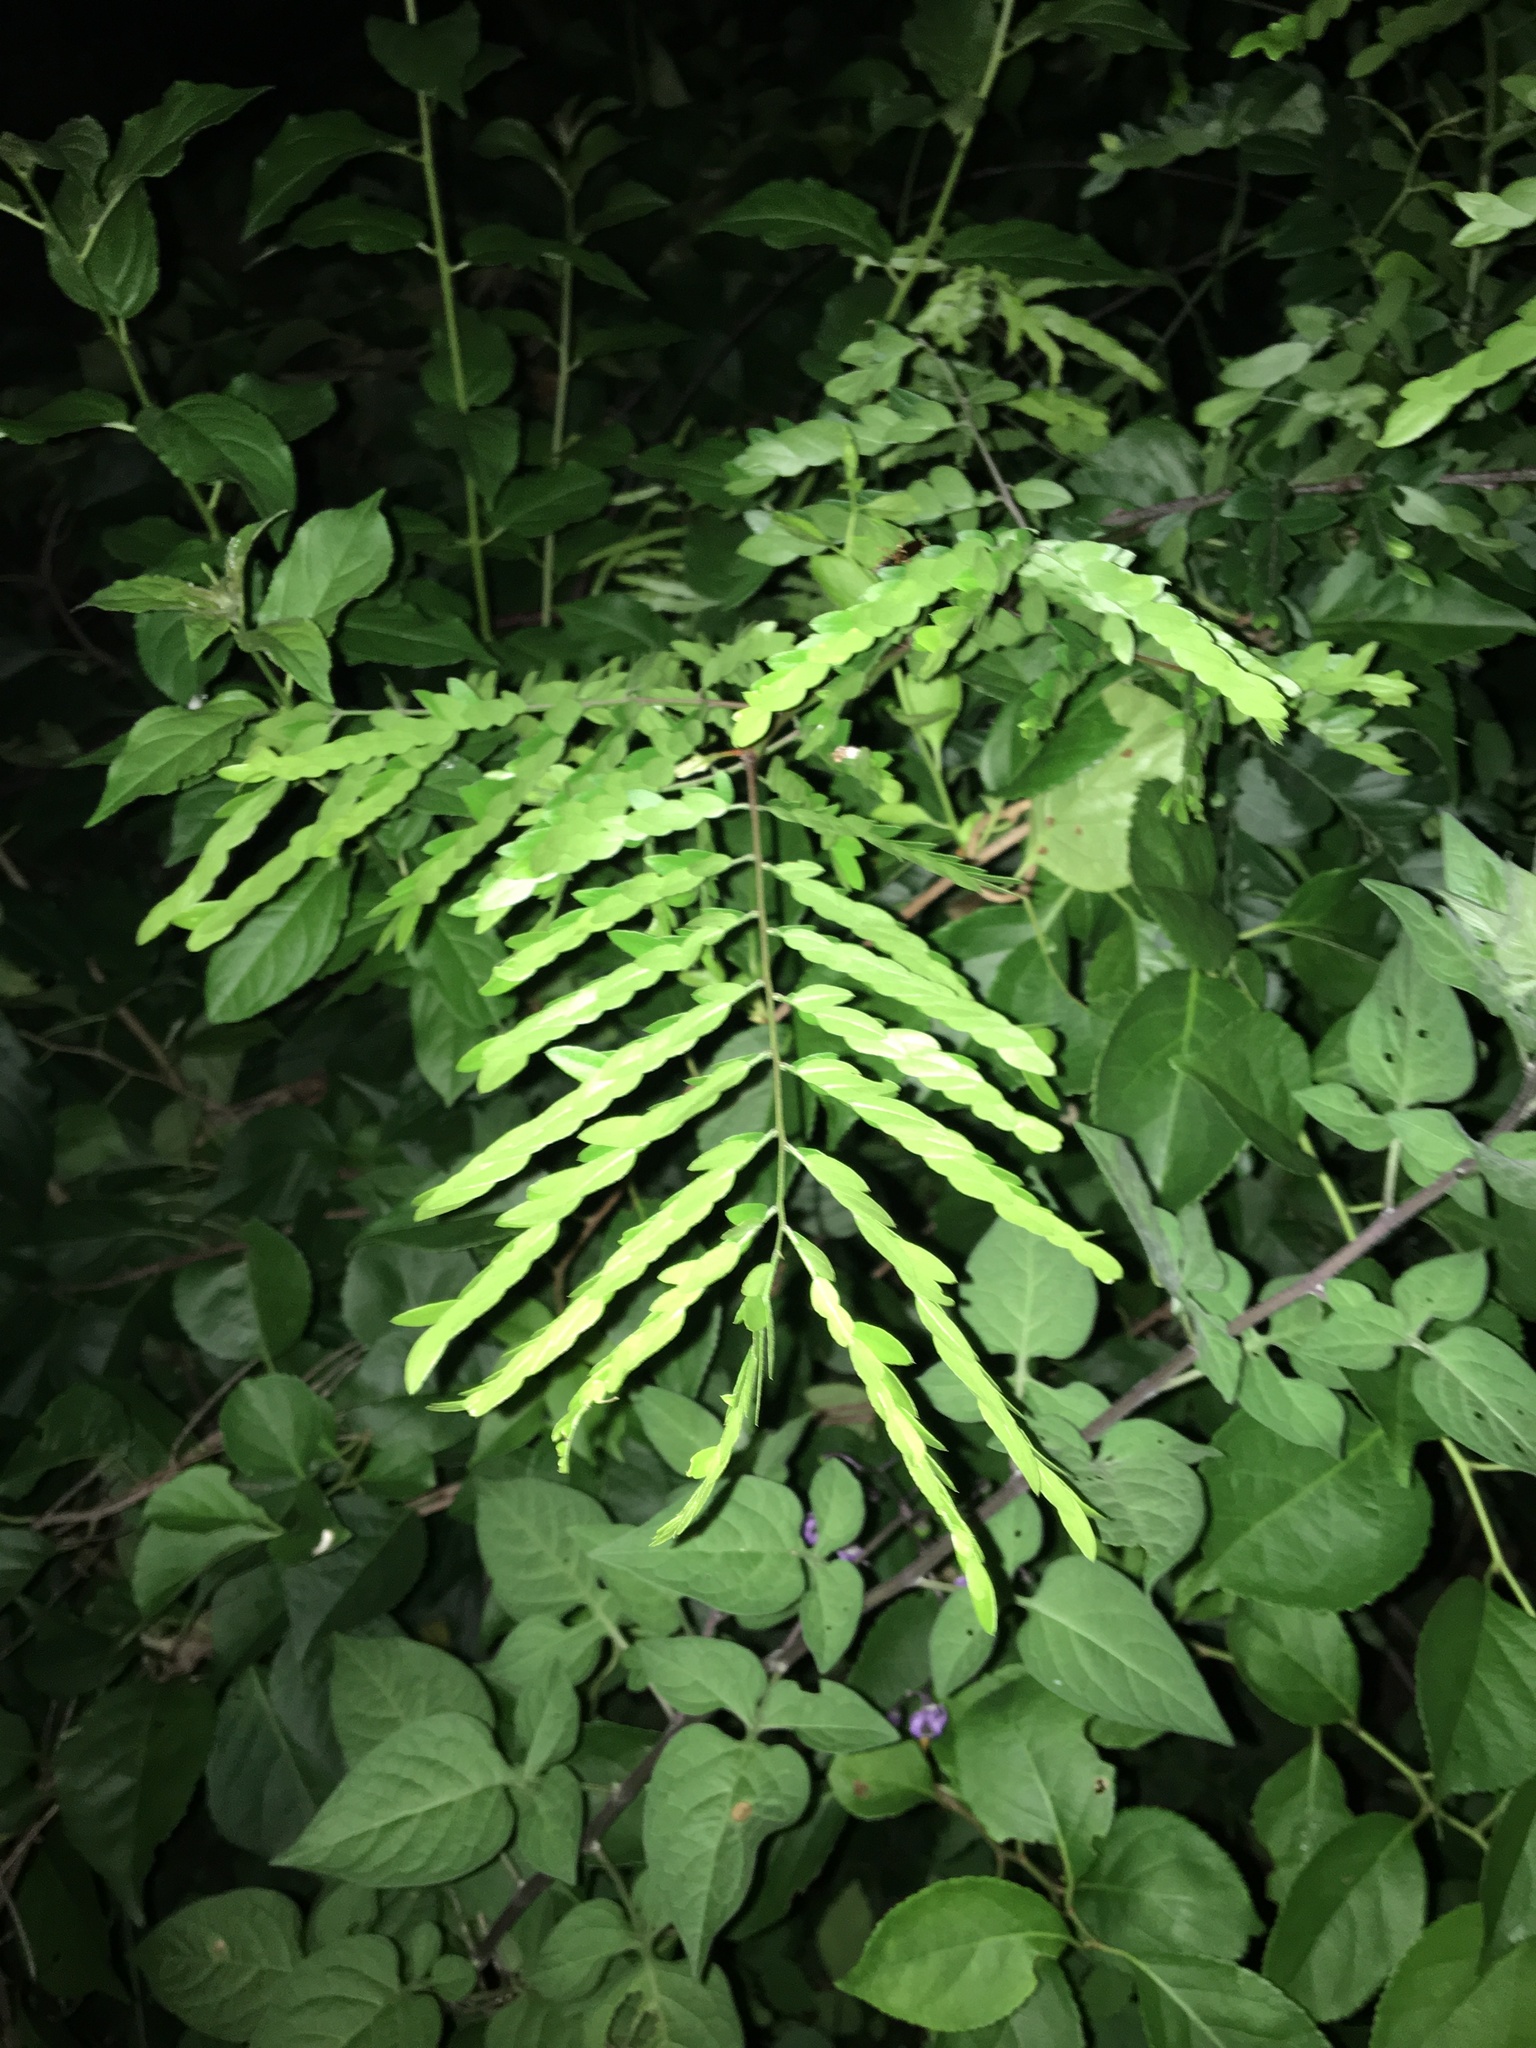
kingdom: Plantae
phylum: Tracheophyta
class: Magnoliopsida
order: Fabales
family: Fabaceae
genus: Albizia
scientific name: Albizia julibrissin
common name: Silktree
